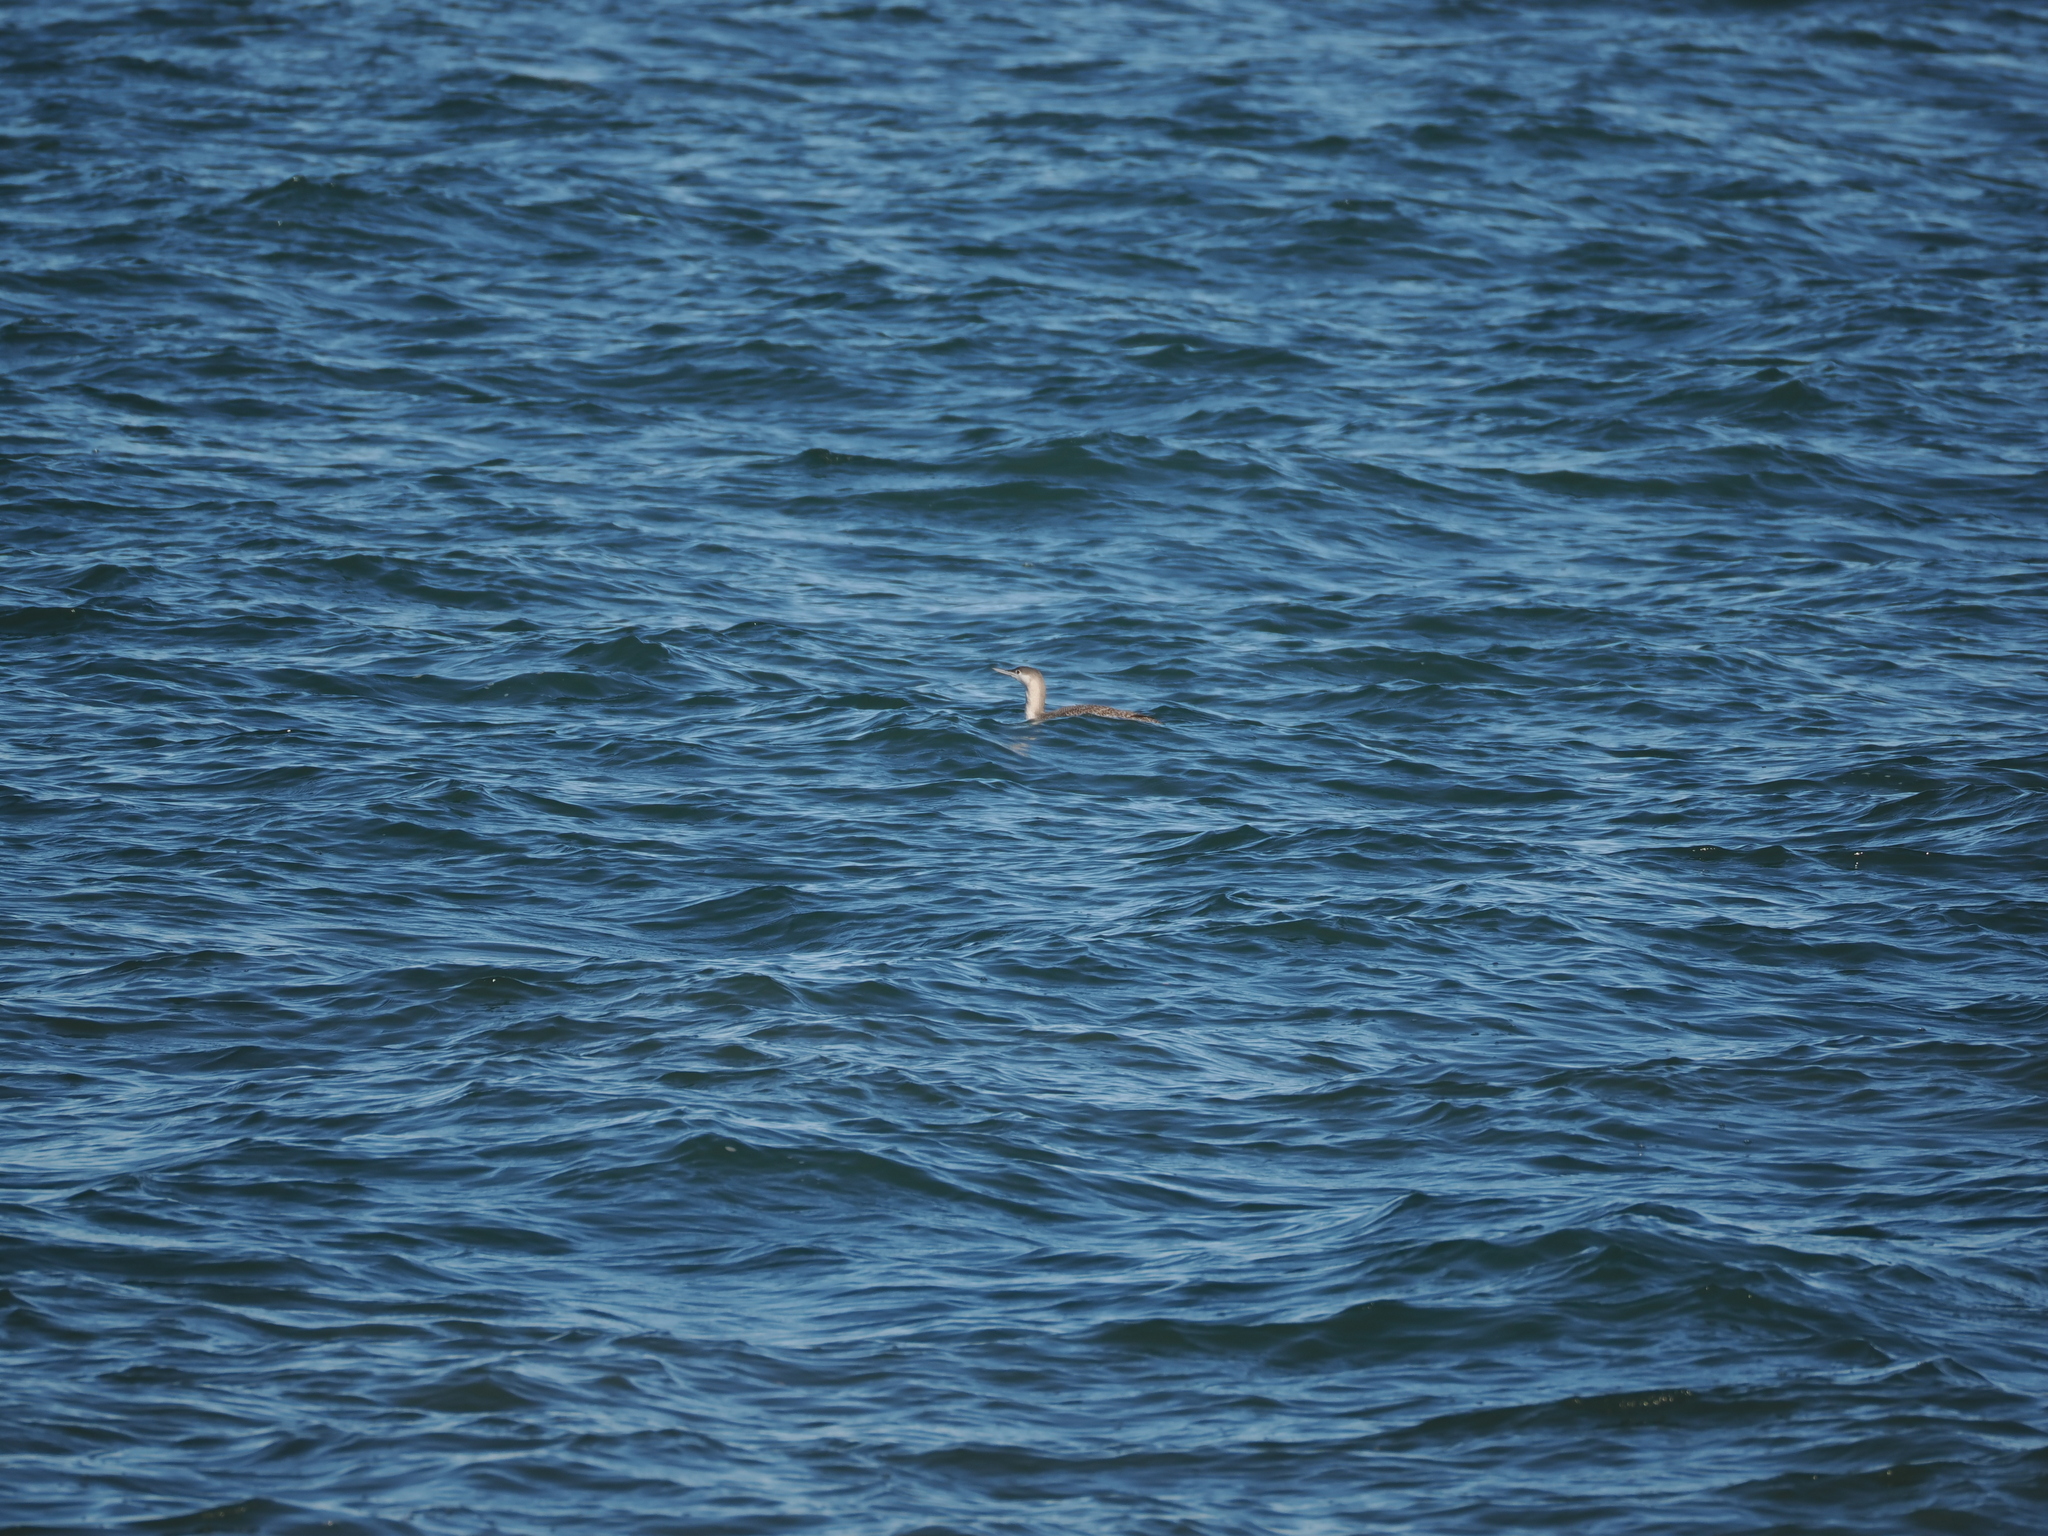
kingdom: Animalia
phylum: Chordata
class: Aves
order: Gaviiformes
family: Gaviidae
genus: Gavia
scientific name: Gavia stellata
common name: Red-throated loon
